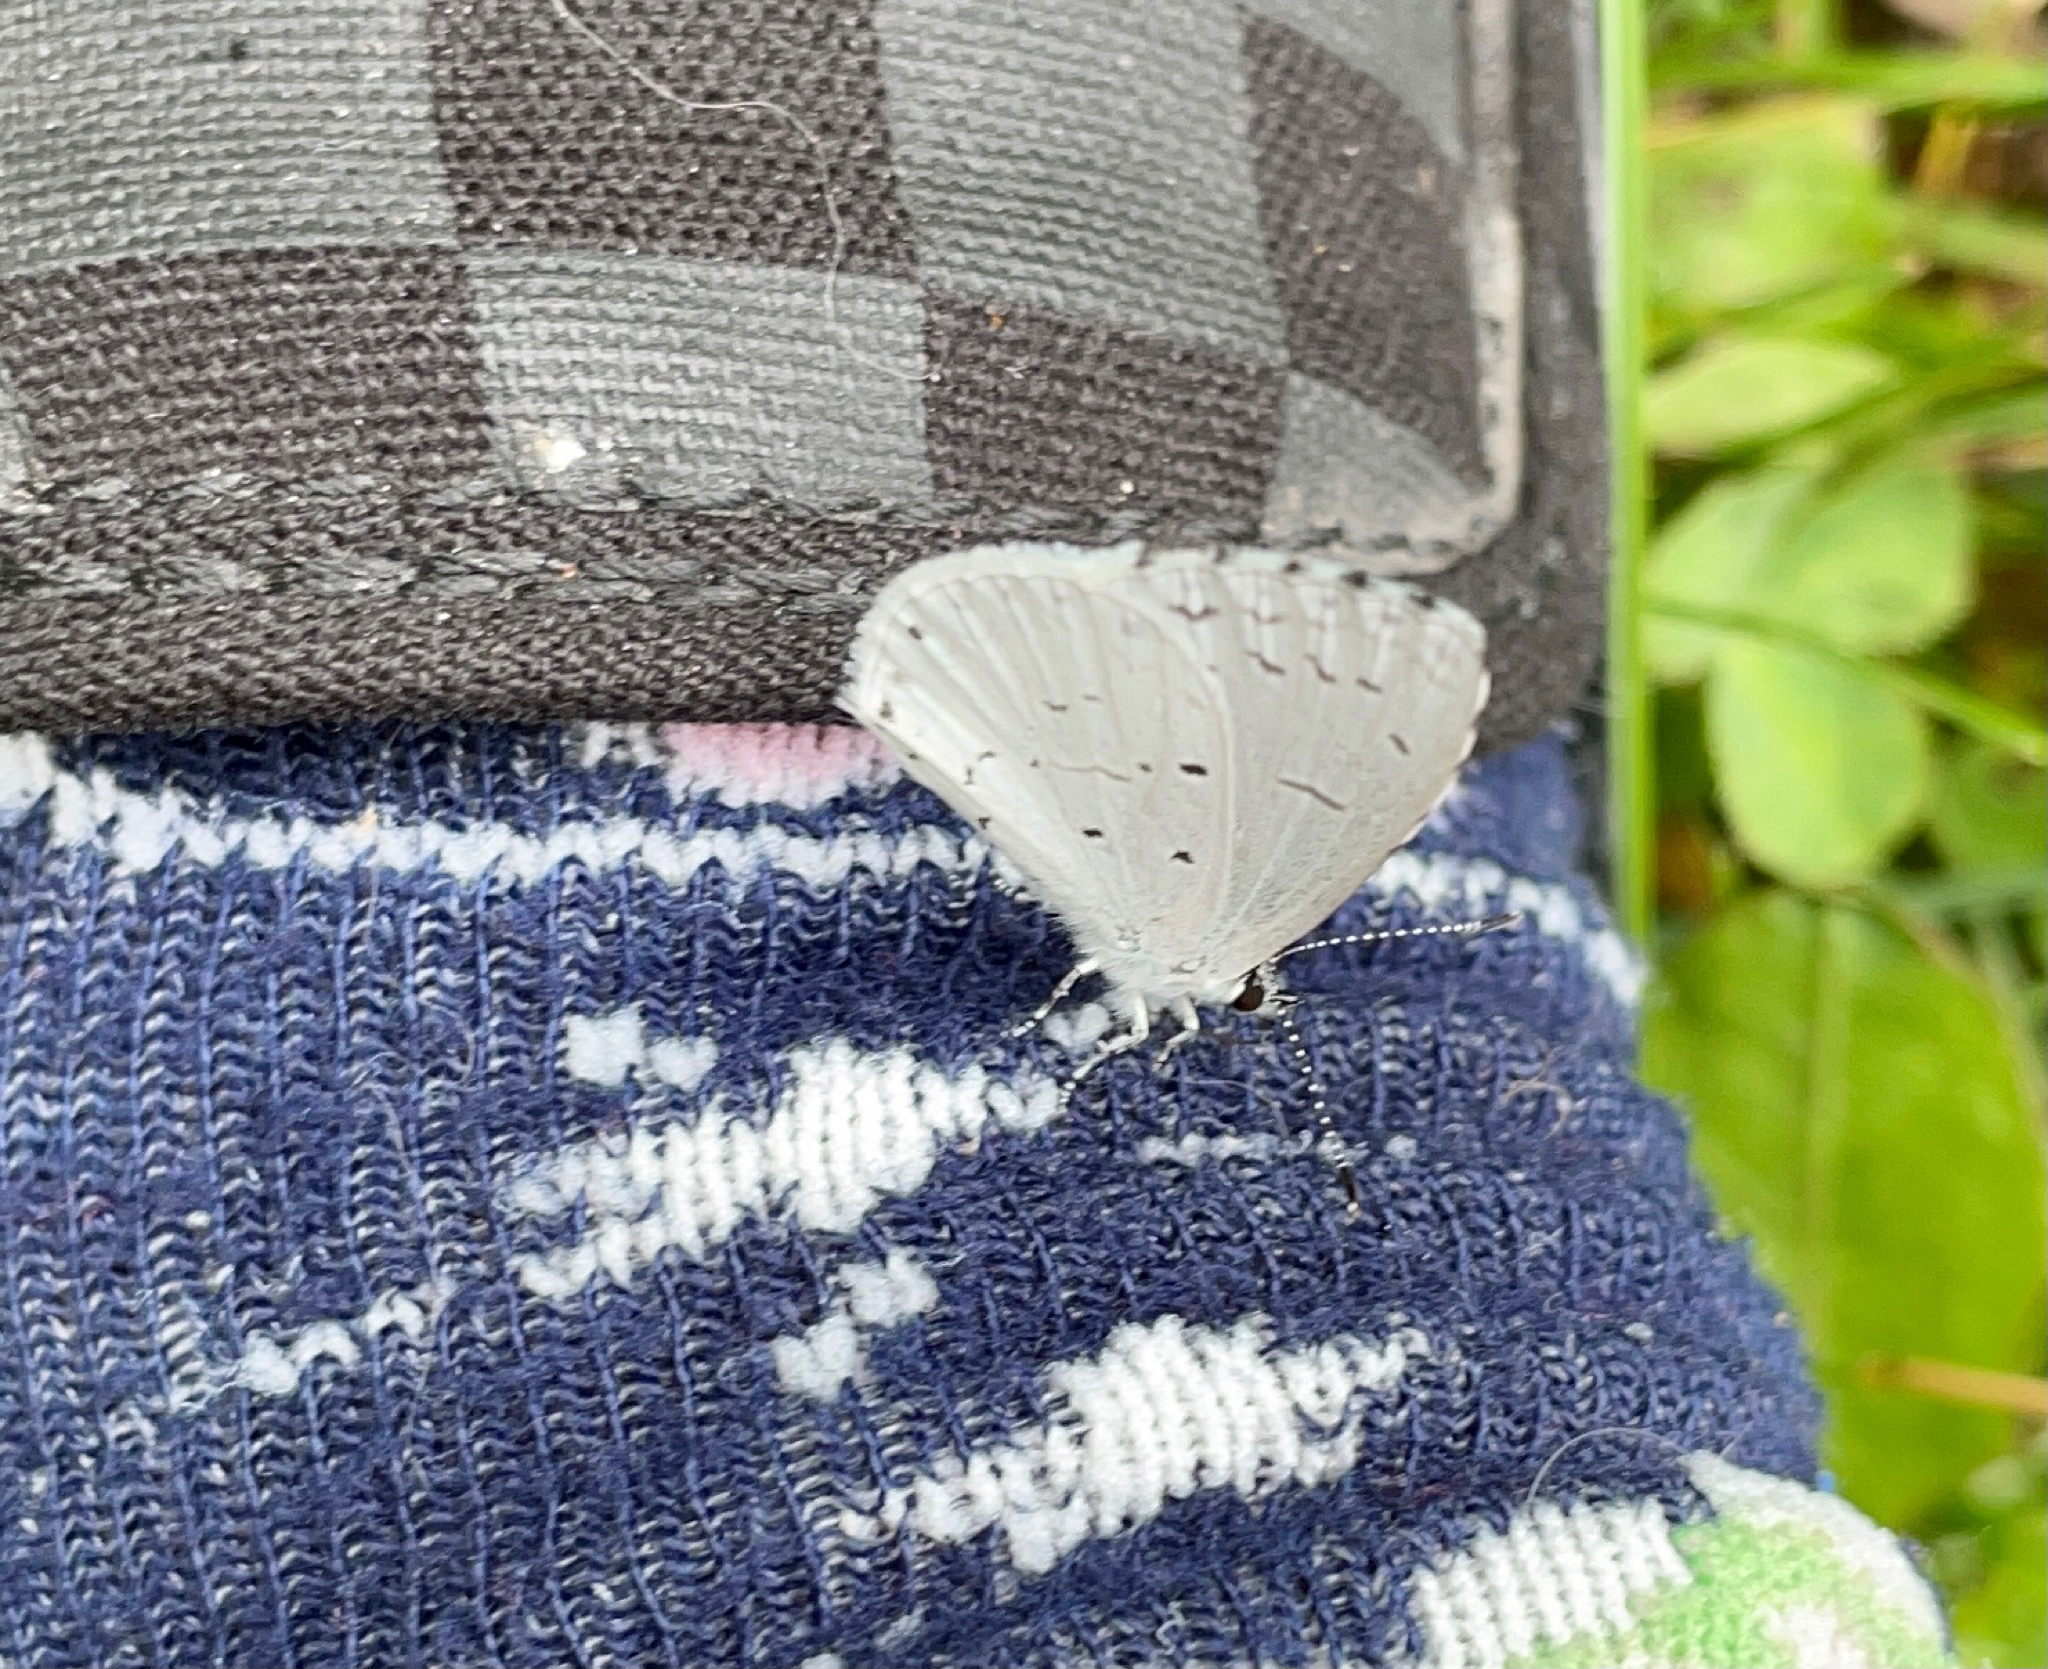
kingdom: Animalia
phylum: Arthropoda
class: Insecta
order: Lepidoptera
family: Lycaenidae
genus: Cyaniris
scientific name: Cyaniris neglecta
